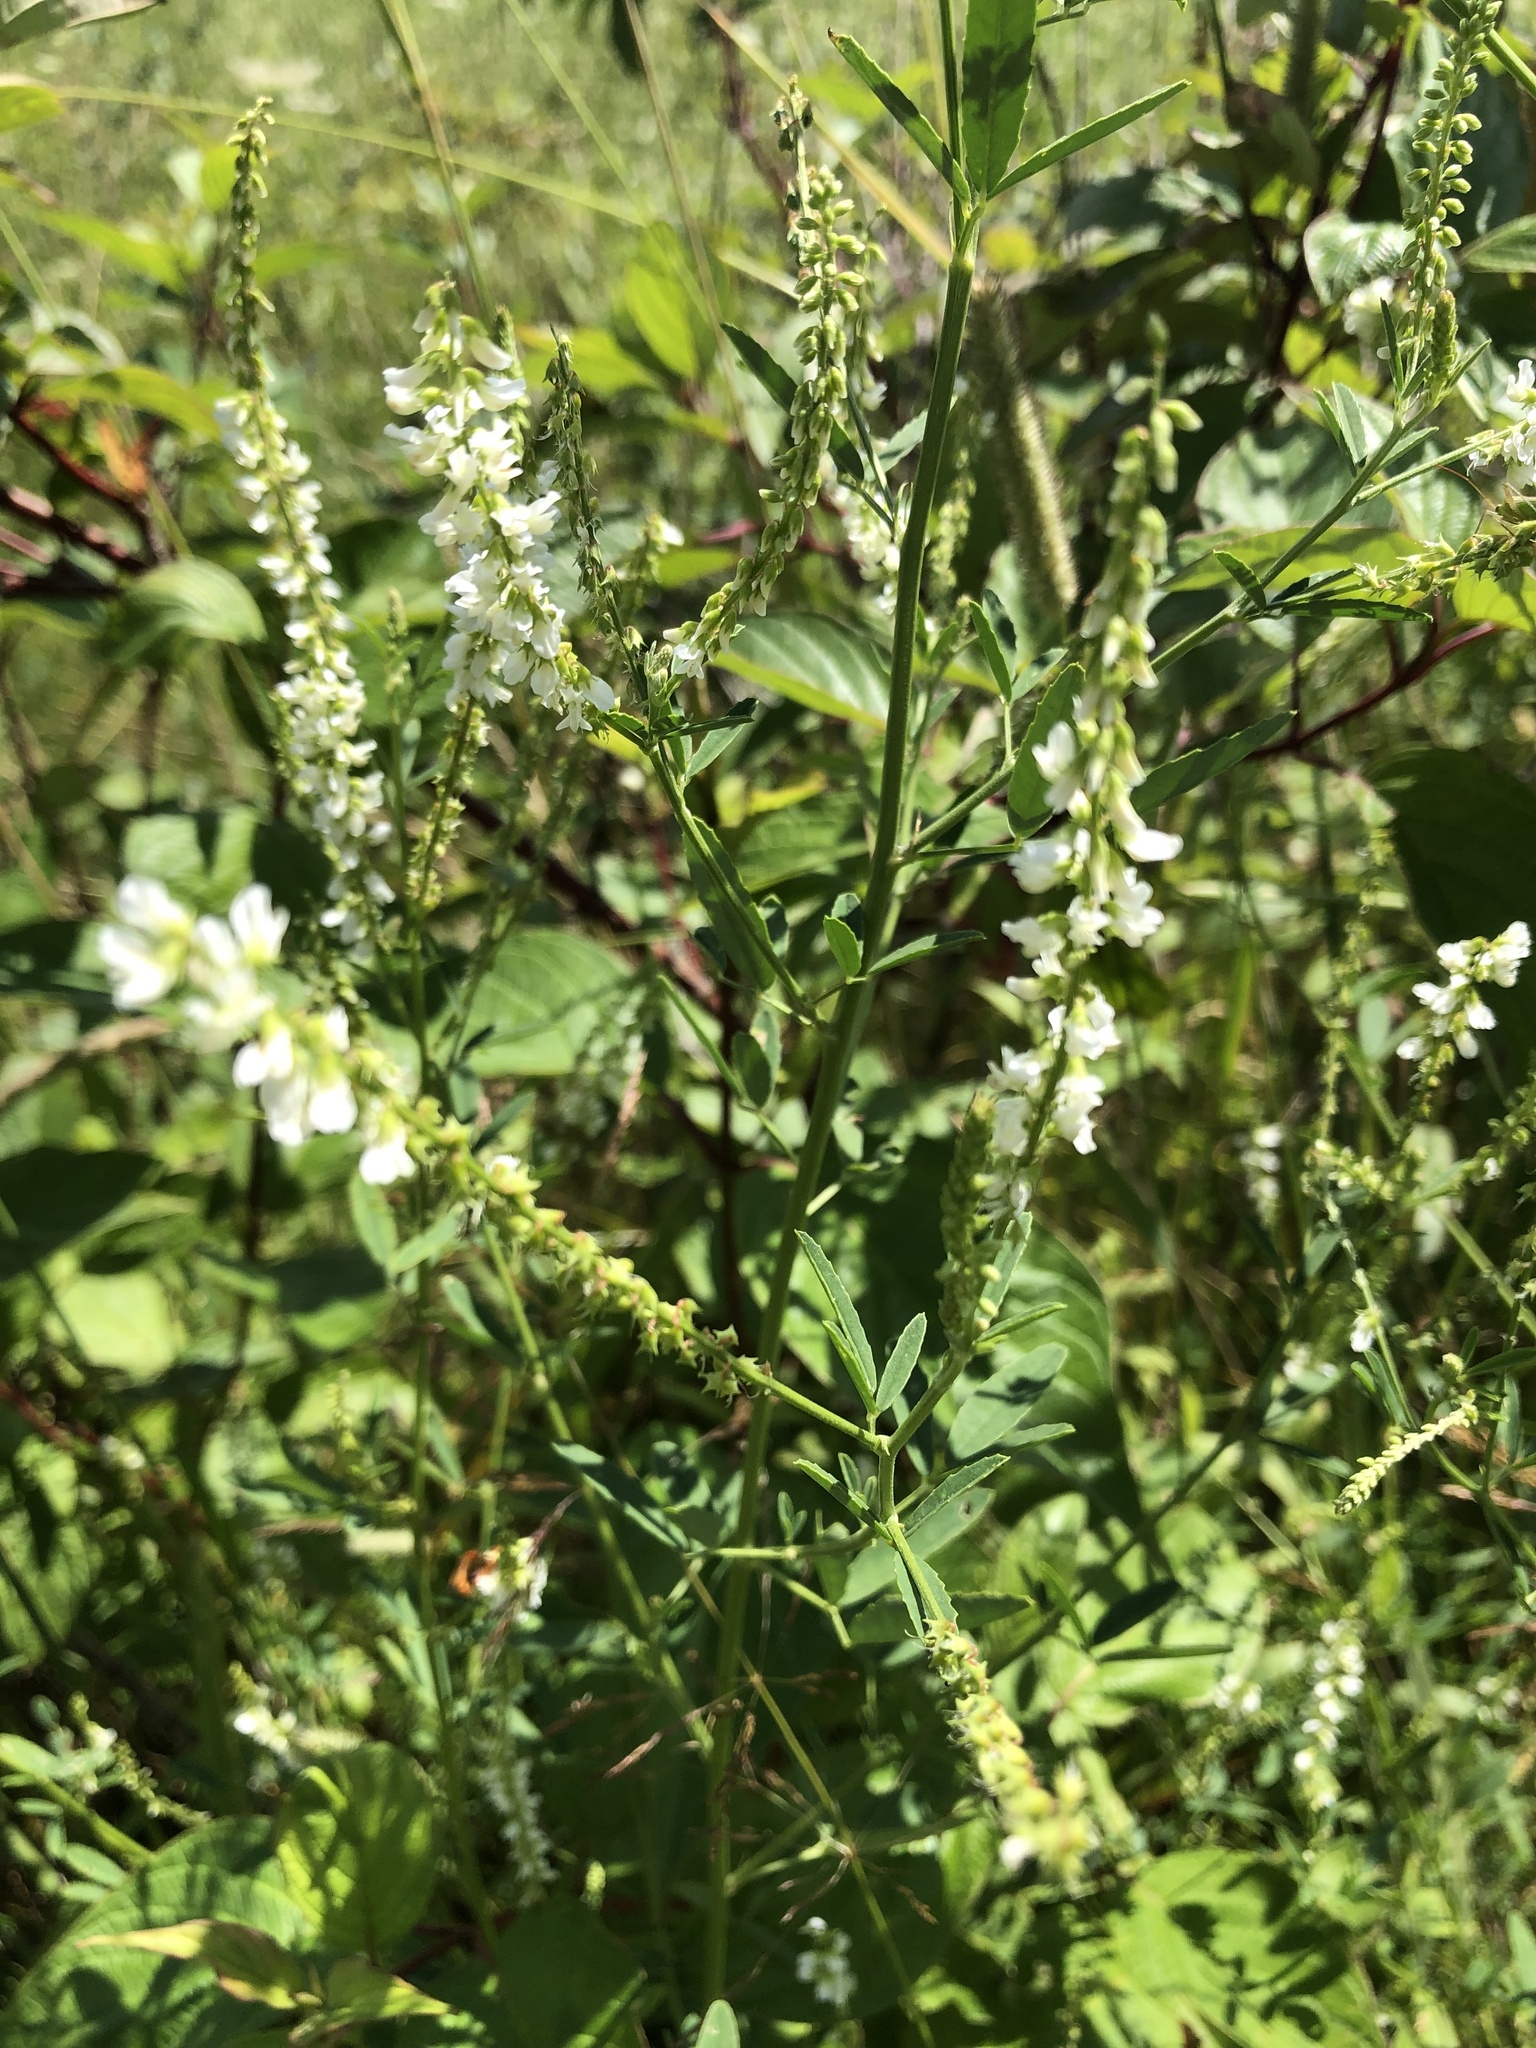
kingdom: Plantae
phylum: Tracheophyta
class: Magnoliopsida
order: Fabales
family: Fabaceae
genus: Melilotus
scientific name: Melilotus albus
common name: White melilot
